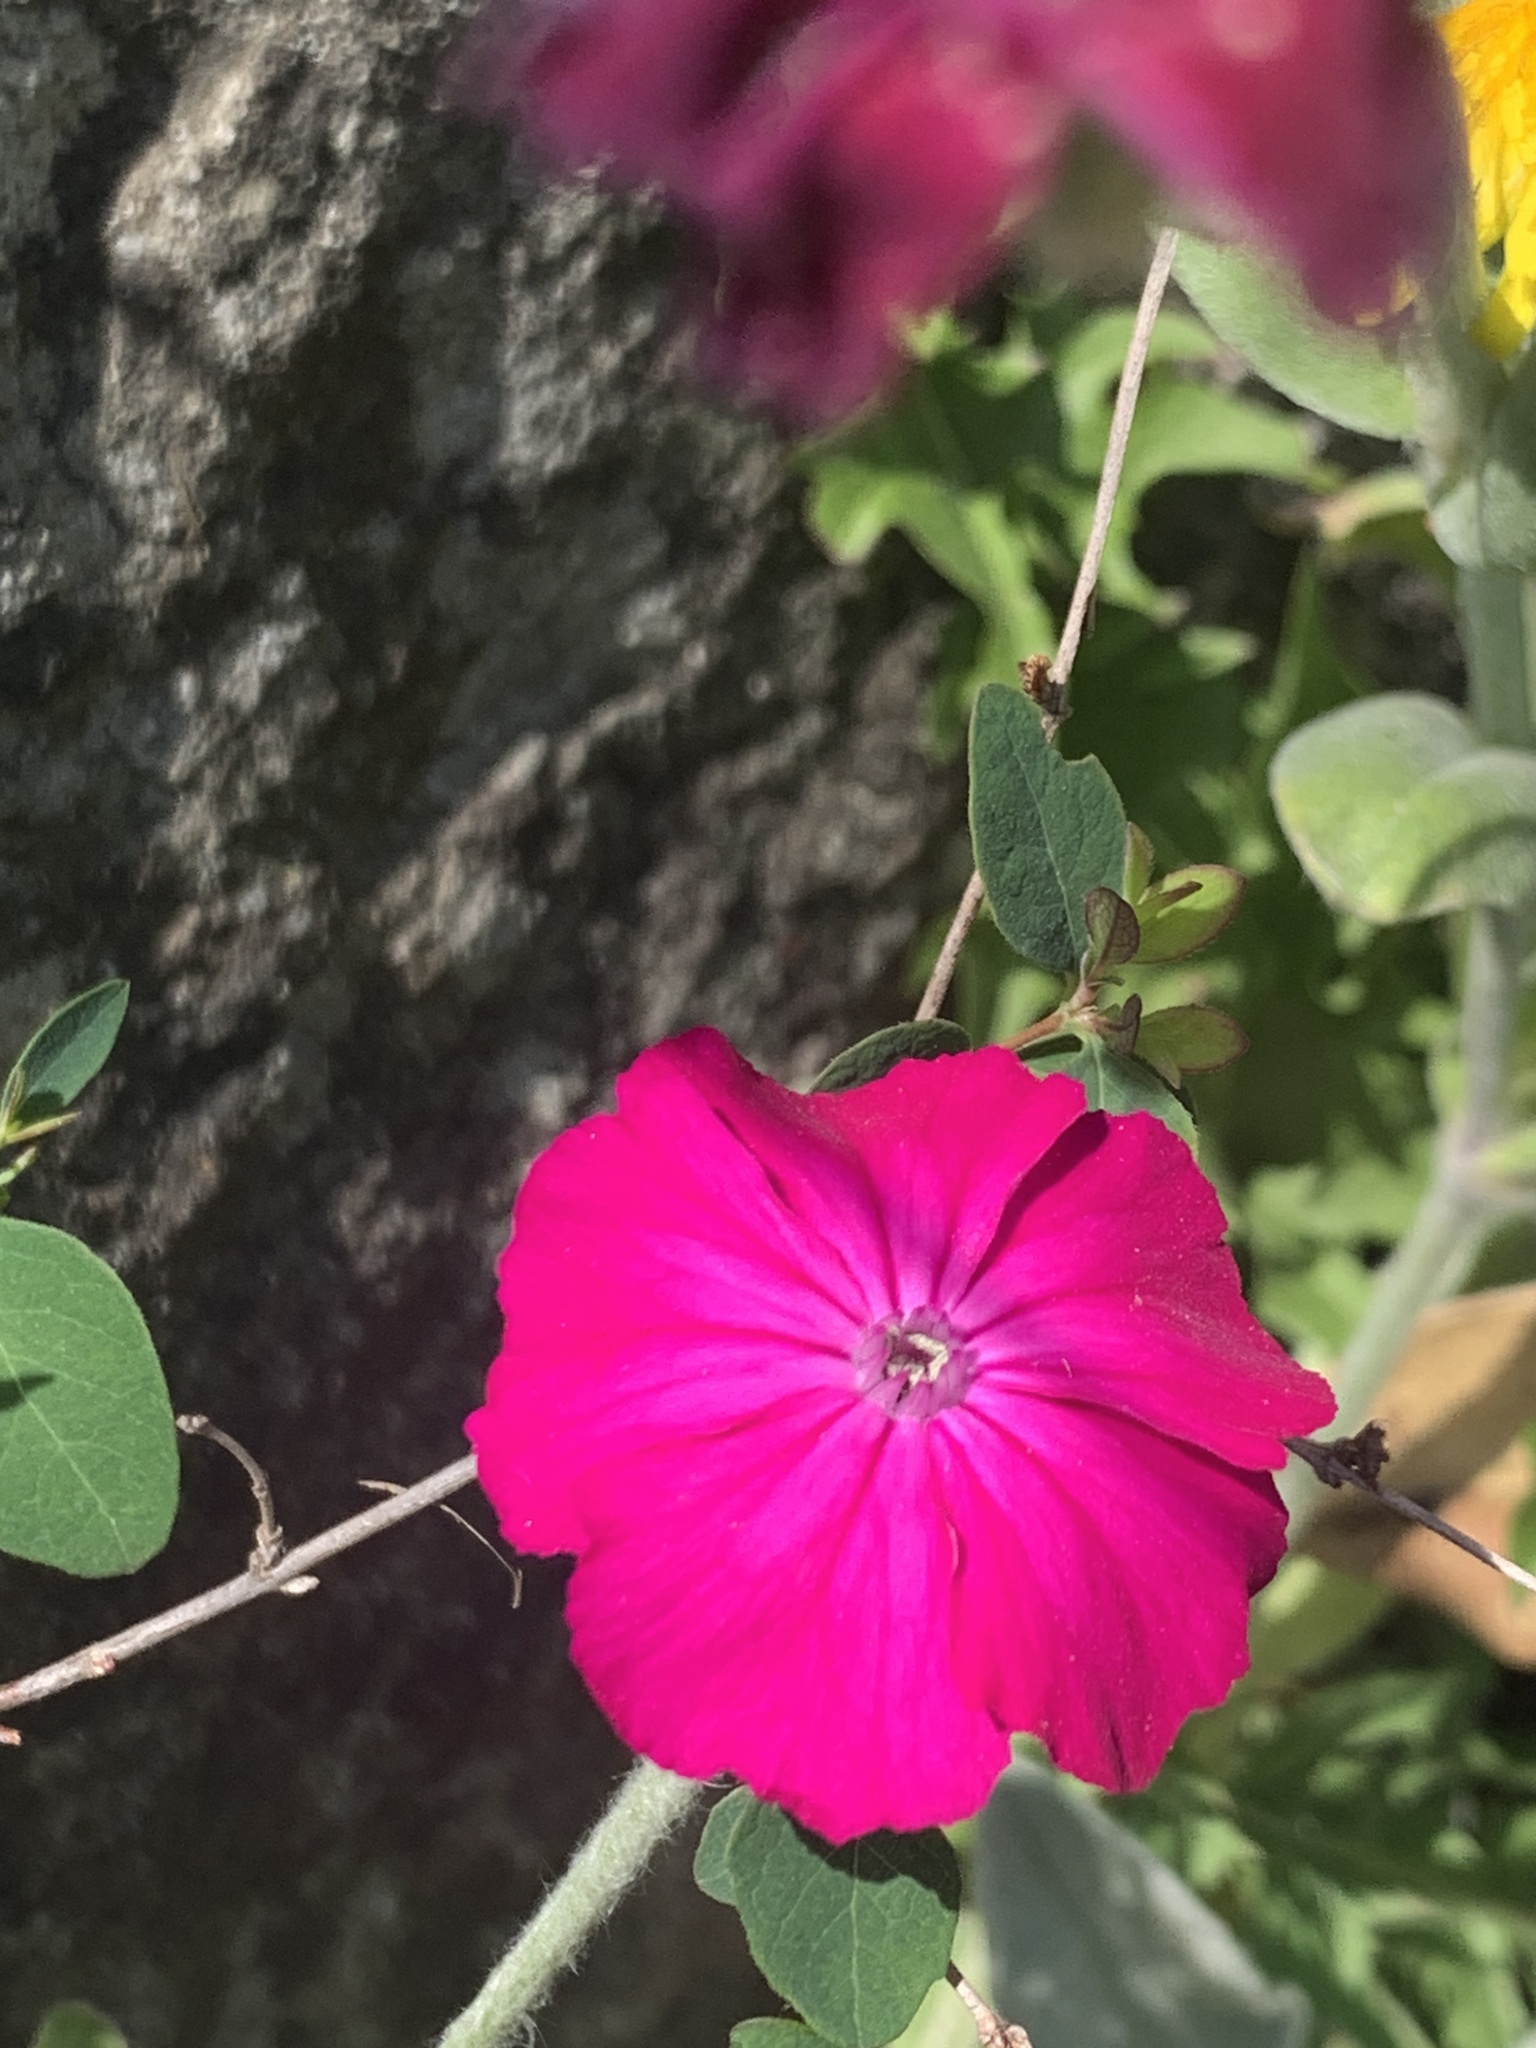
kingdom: Plantae
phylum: Tracheophyta
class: Magnoliopsida
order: Caryophyllales
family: Caryophyllaceae
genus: Silene
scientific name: Silene coronaria
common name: Rose campion
